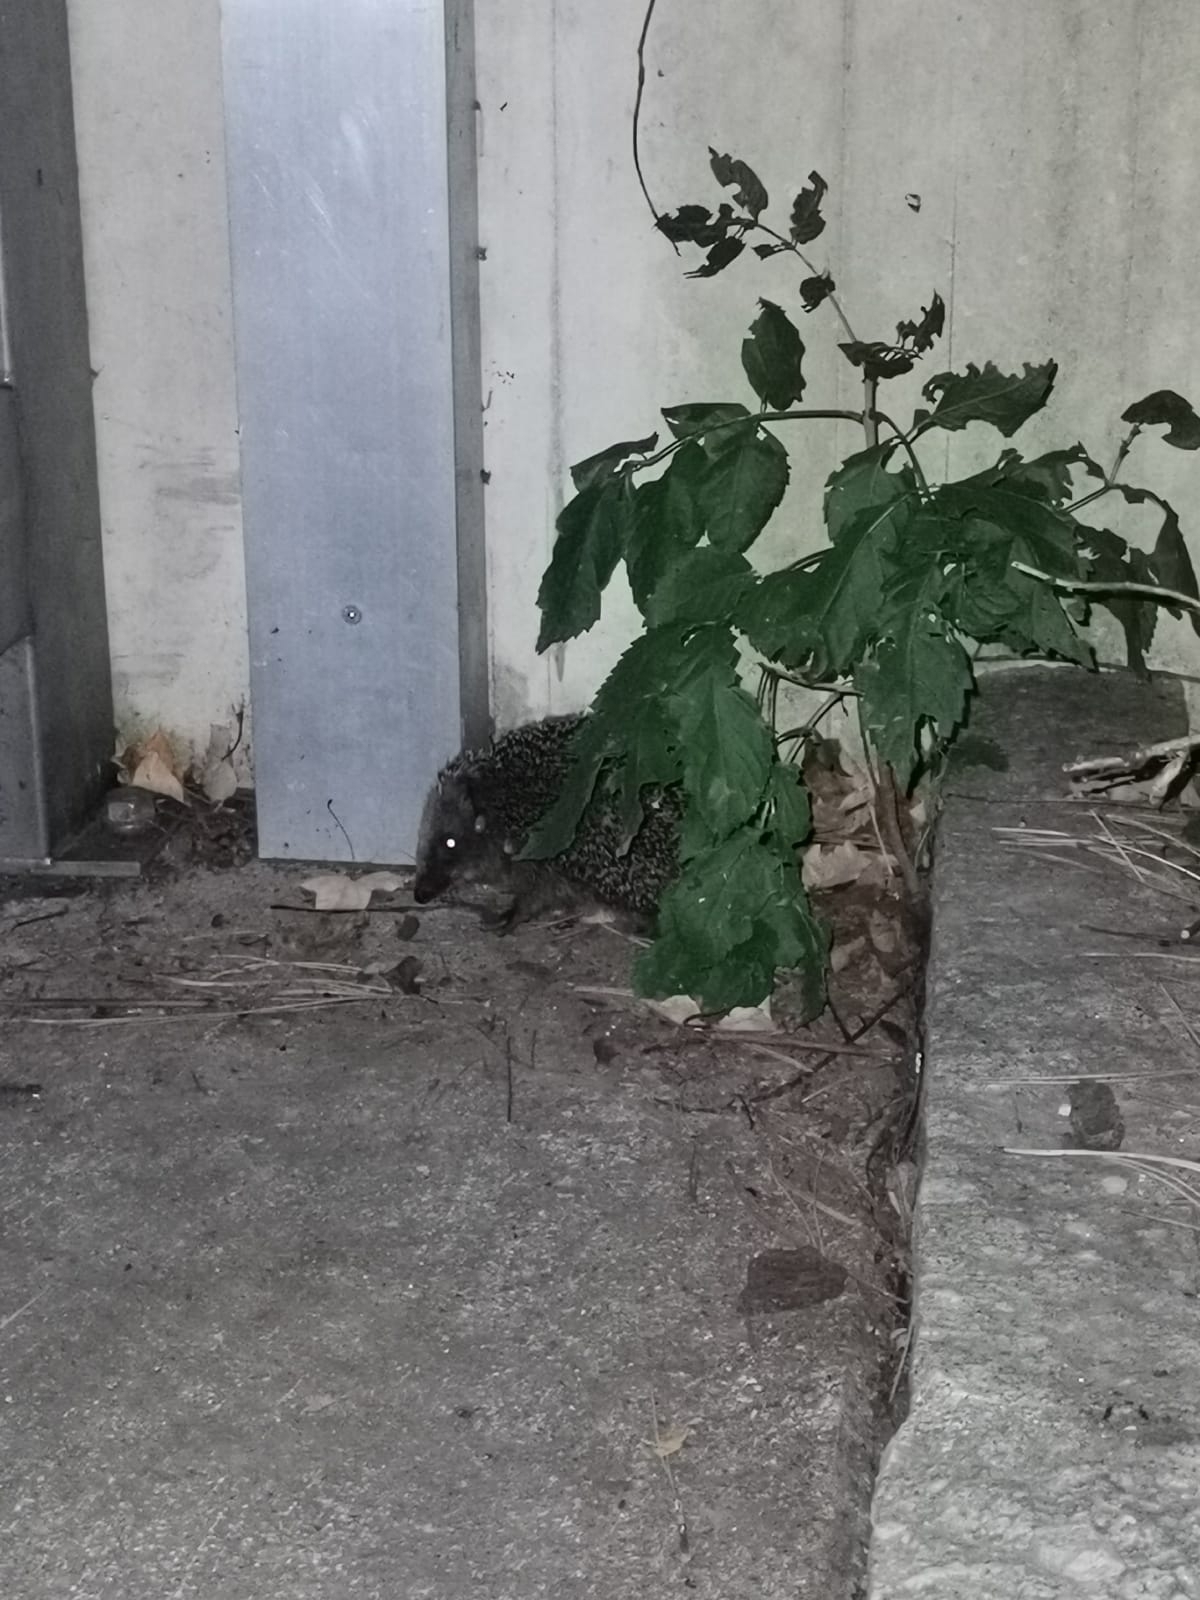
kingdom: Animalia
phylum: Chordata
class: Mammalia
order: Erinaceomorpha
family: Erinaceidae
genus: Erinaceus
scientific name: Erinaceus europaeus
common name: West european hedgehog
